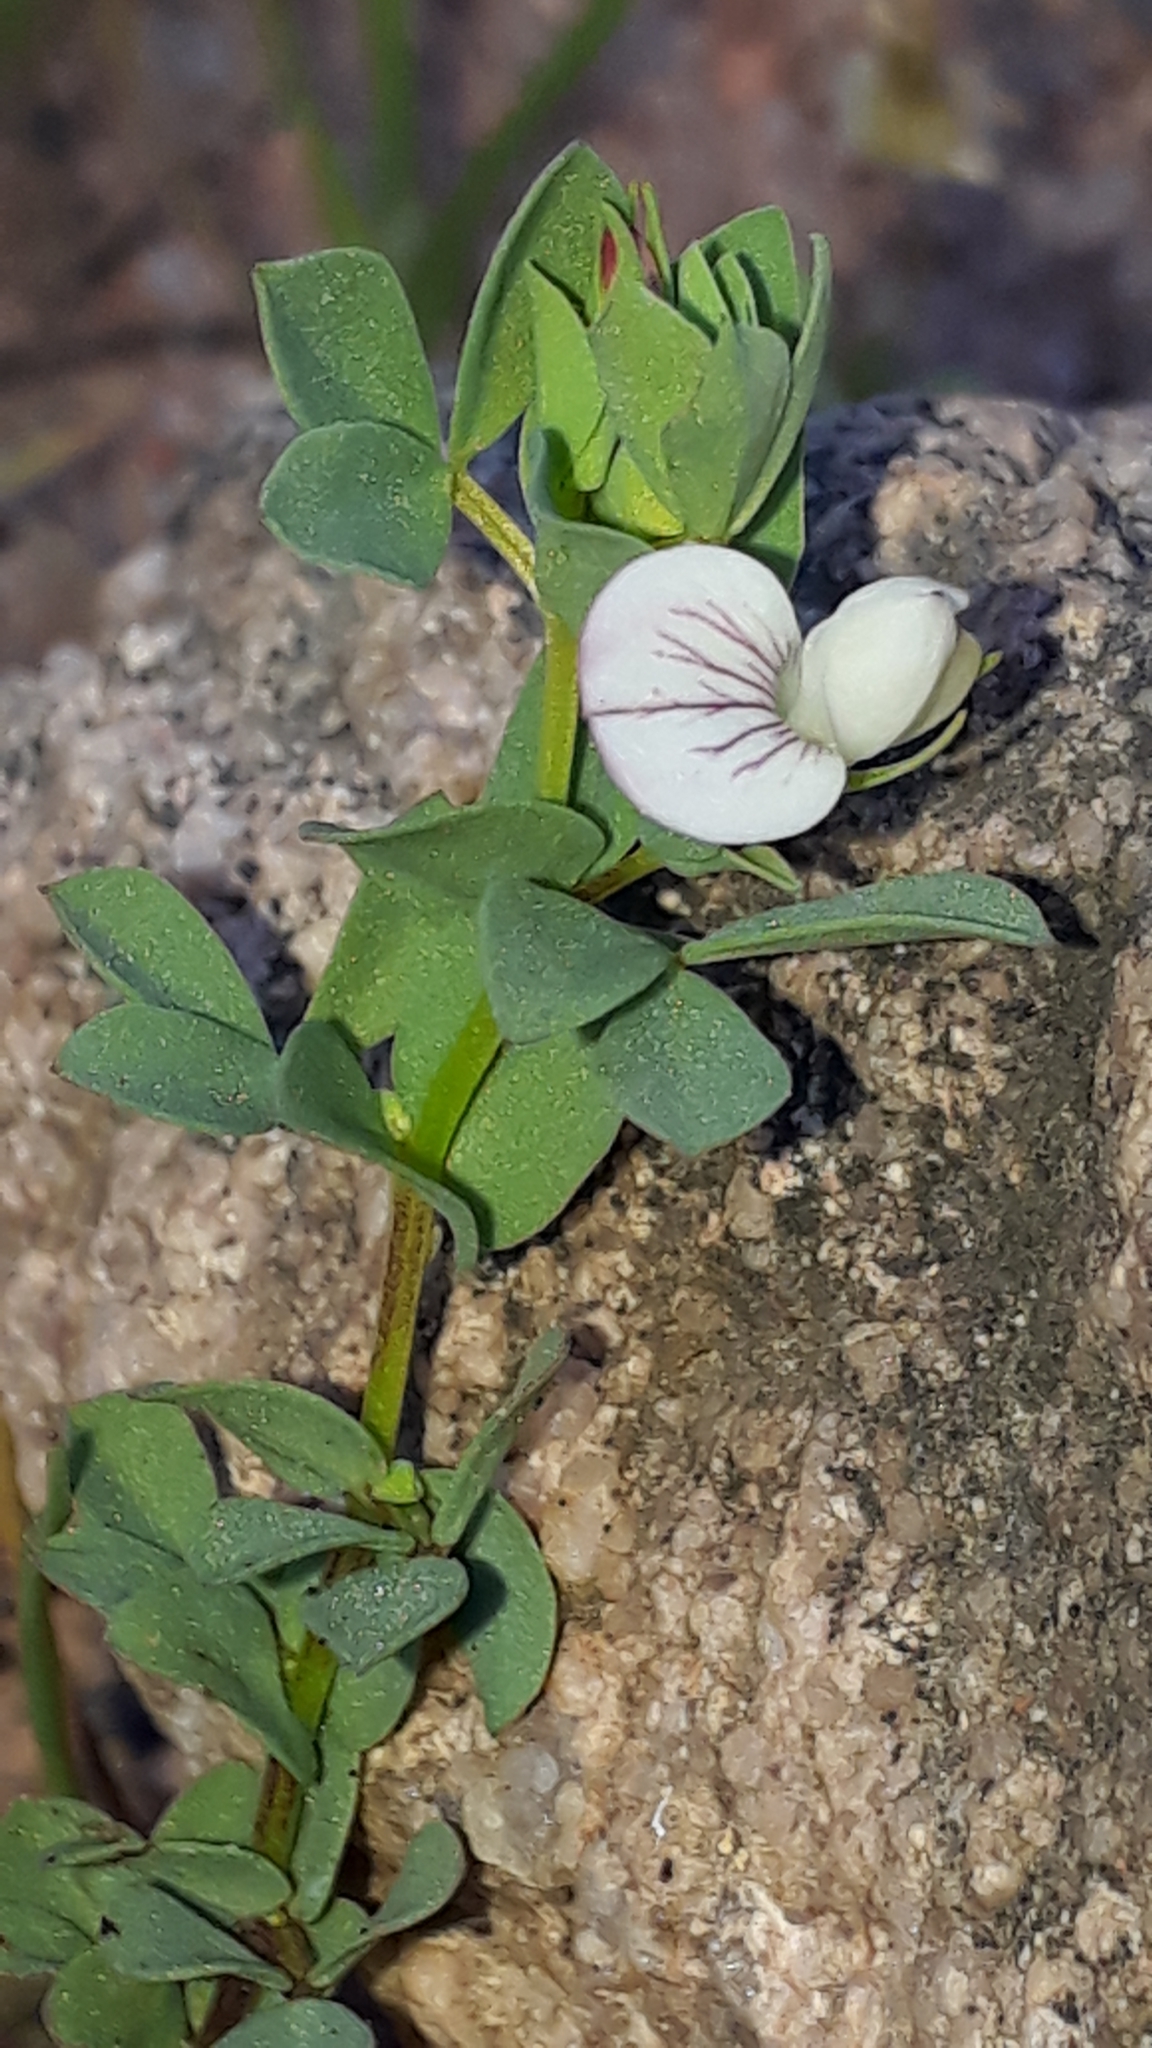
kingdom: Plantae
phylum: Tracheophyta
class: Magnoliopsida
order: Fabales
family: Fabaceae
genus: Lotus
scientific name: Lotus conimbricensis
